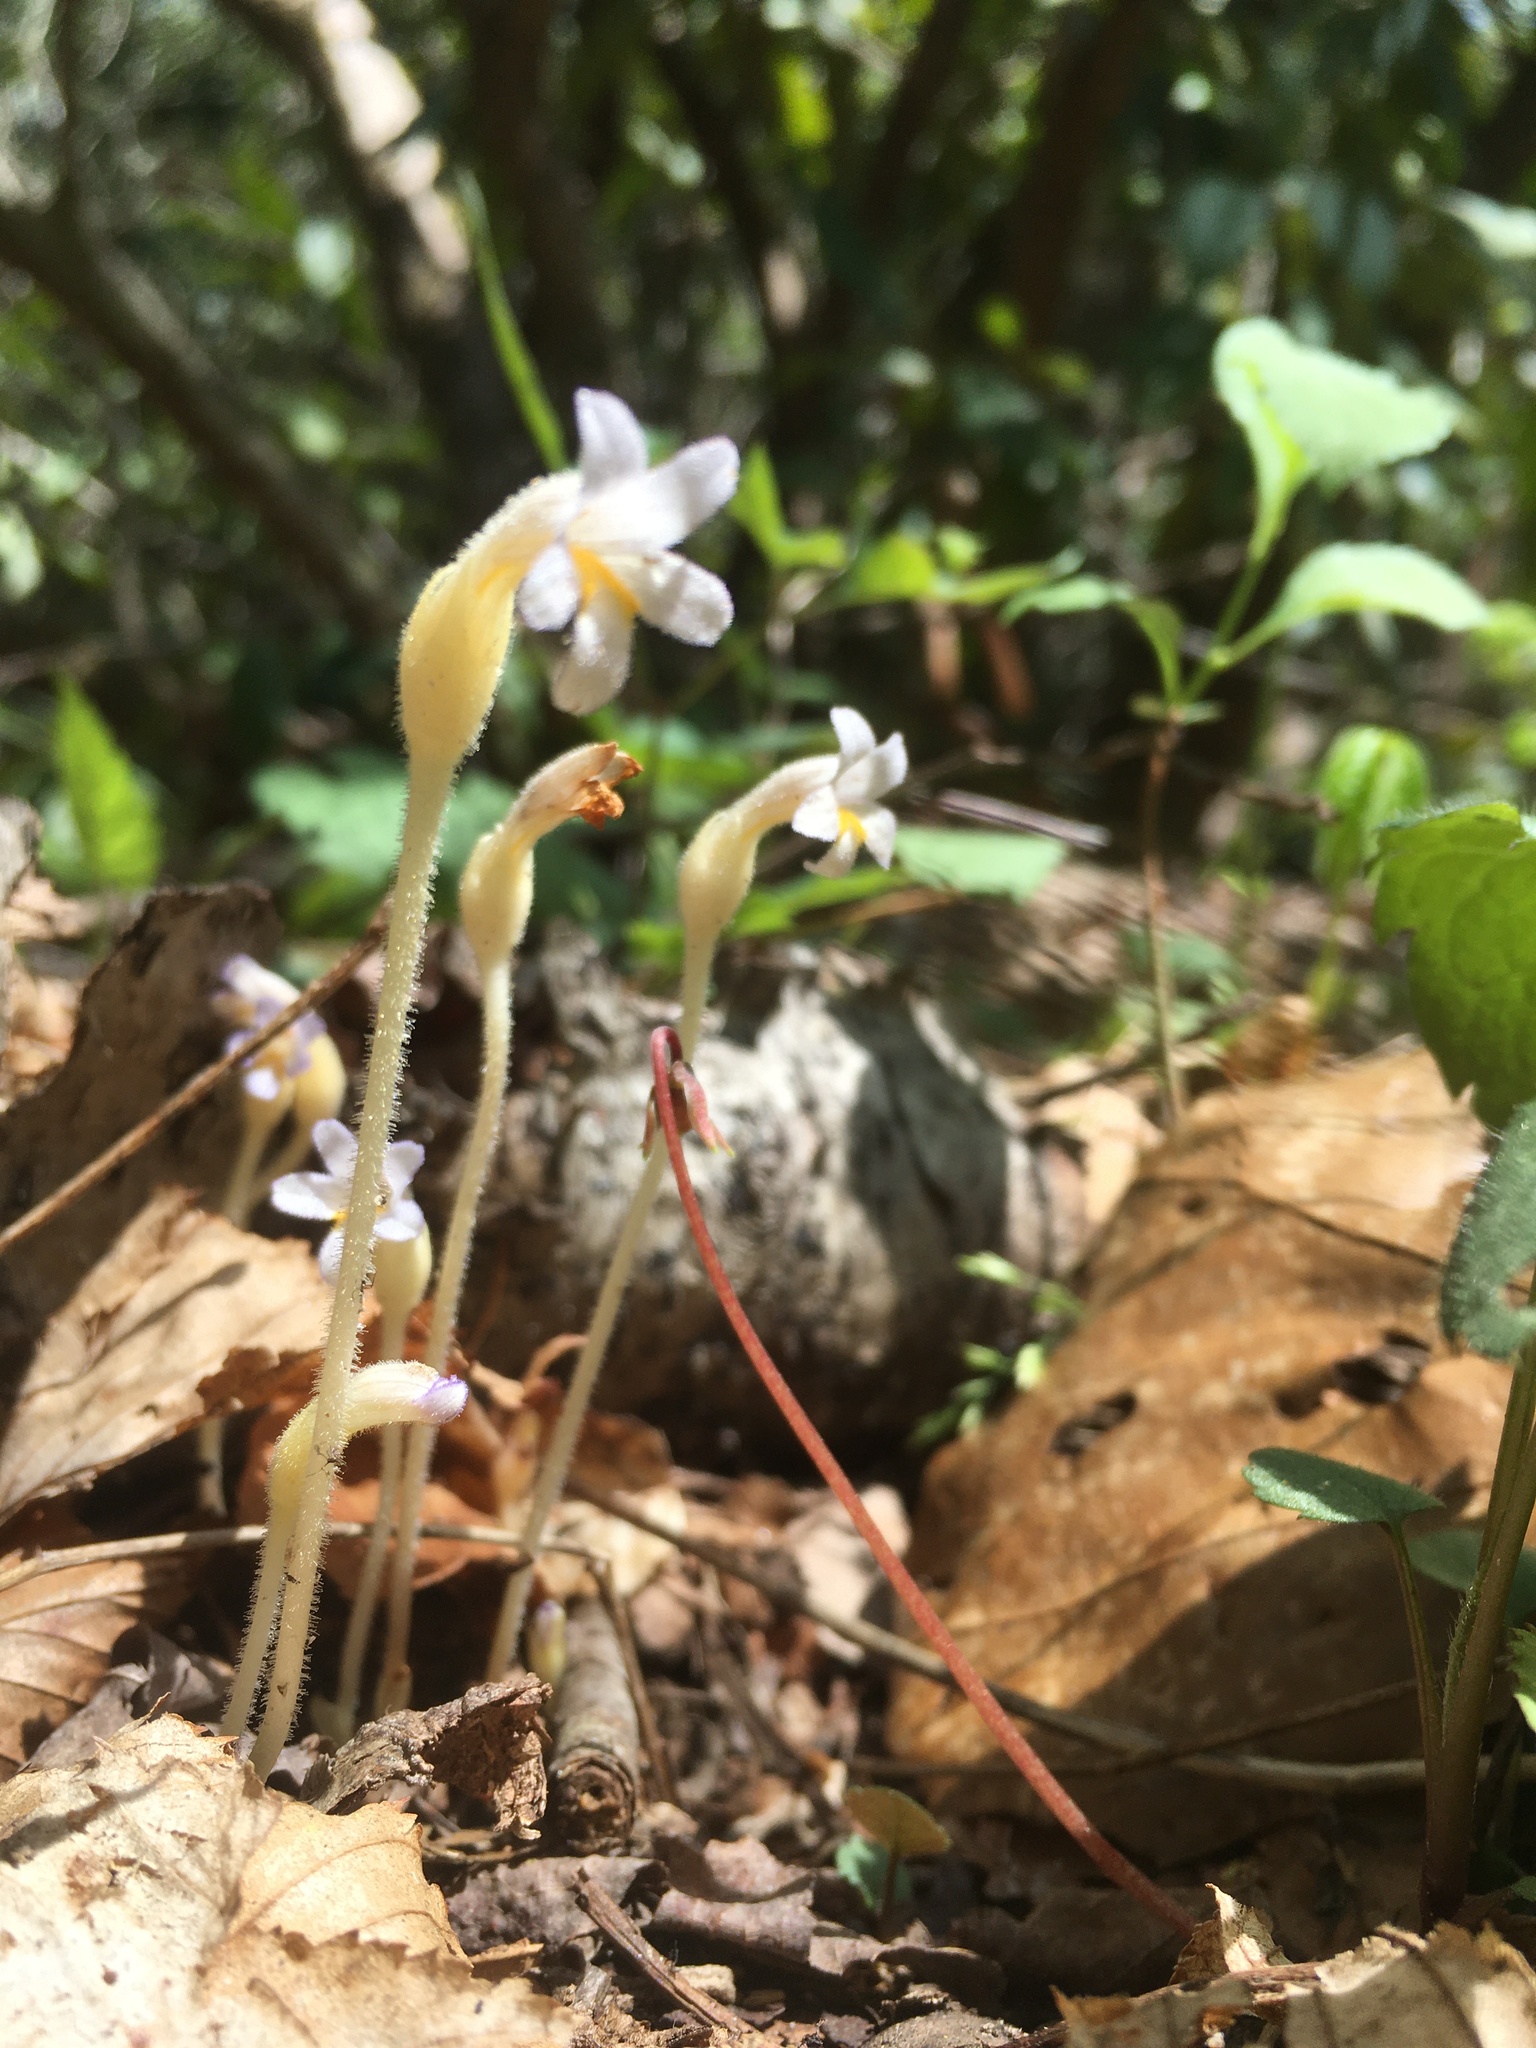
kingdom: Plantae
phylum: Tracheophyta
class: Magnoliopsida
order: Lamiales
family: Orobanchaceae
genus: Aphyllon
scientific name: Aphyllon uniflorum
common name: One-flowered broomrape
